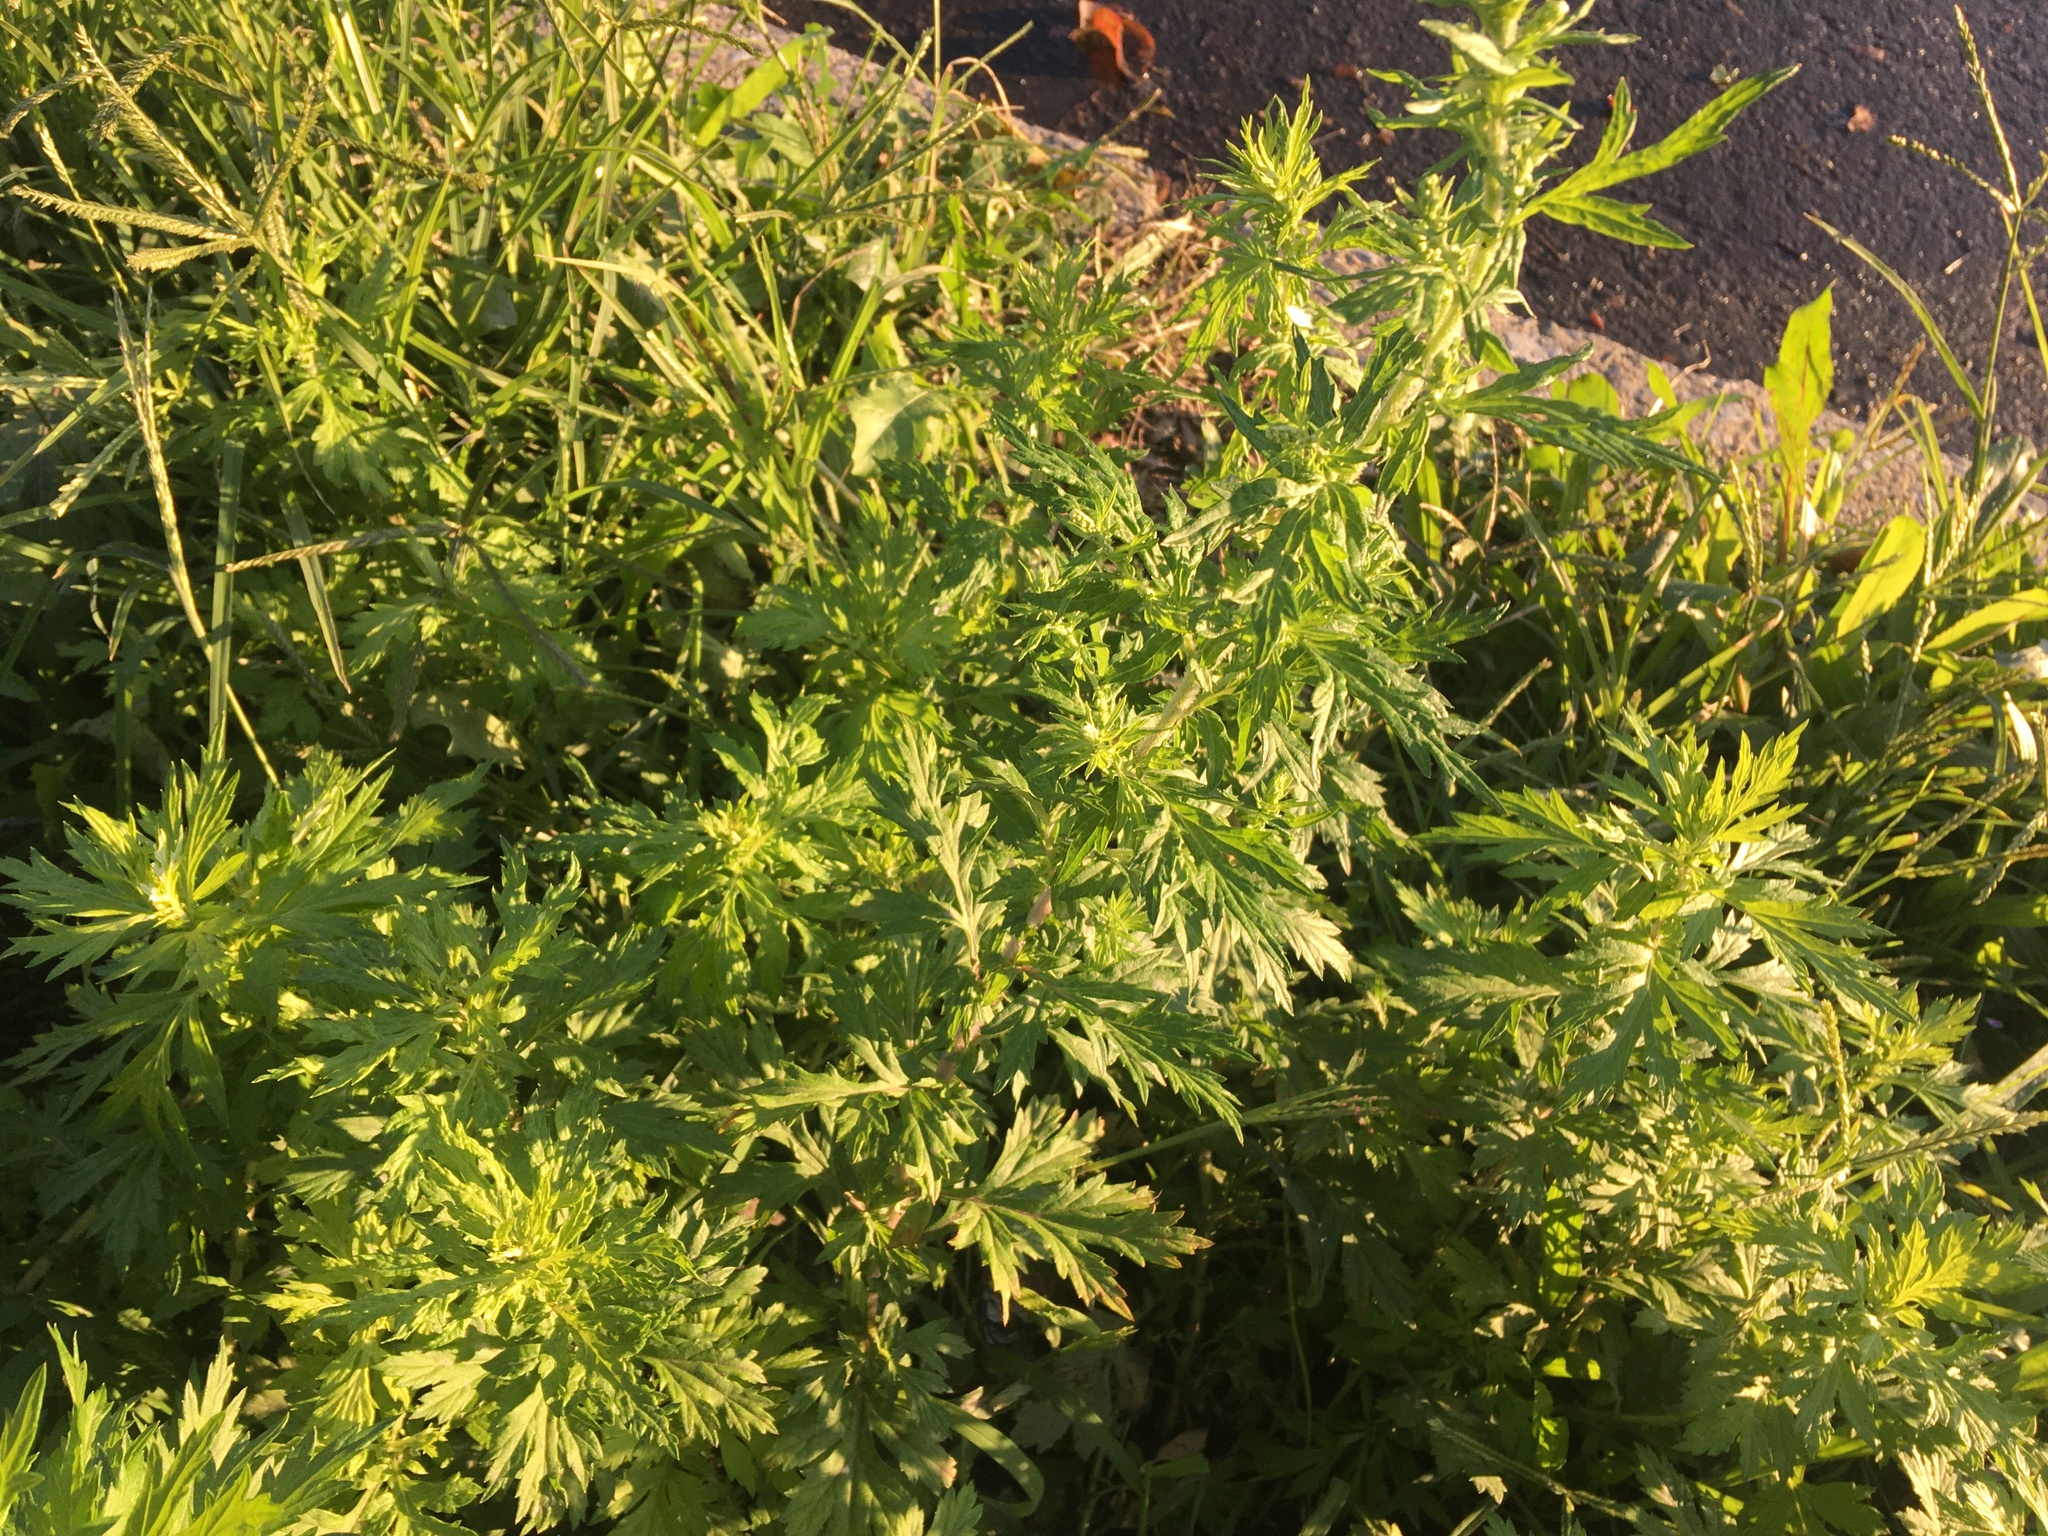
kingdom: Plantae
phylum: Tracheophyta
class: Magnoliopsida
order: Asterales
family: Asteraceae
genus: Artemisia
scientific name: Artemisia vulgaris
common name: Mugwort
